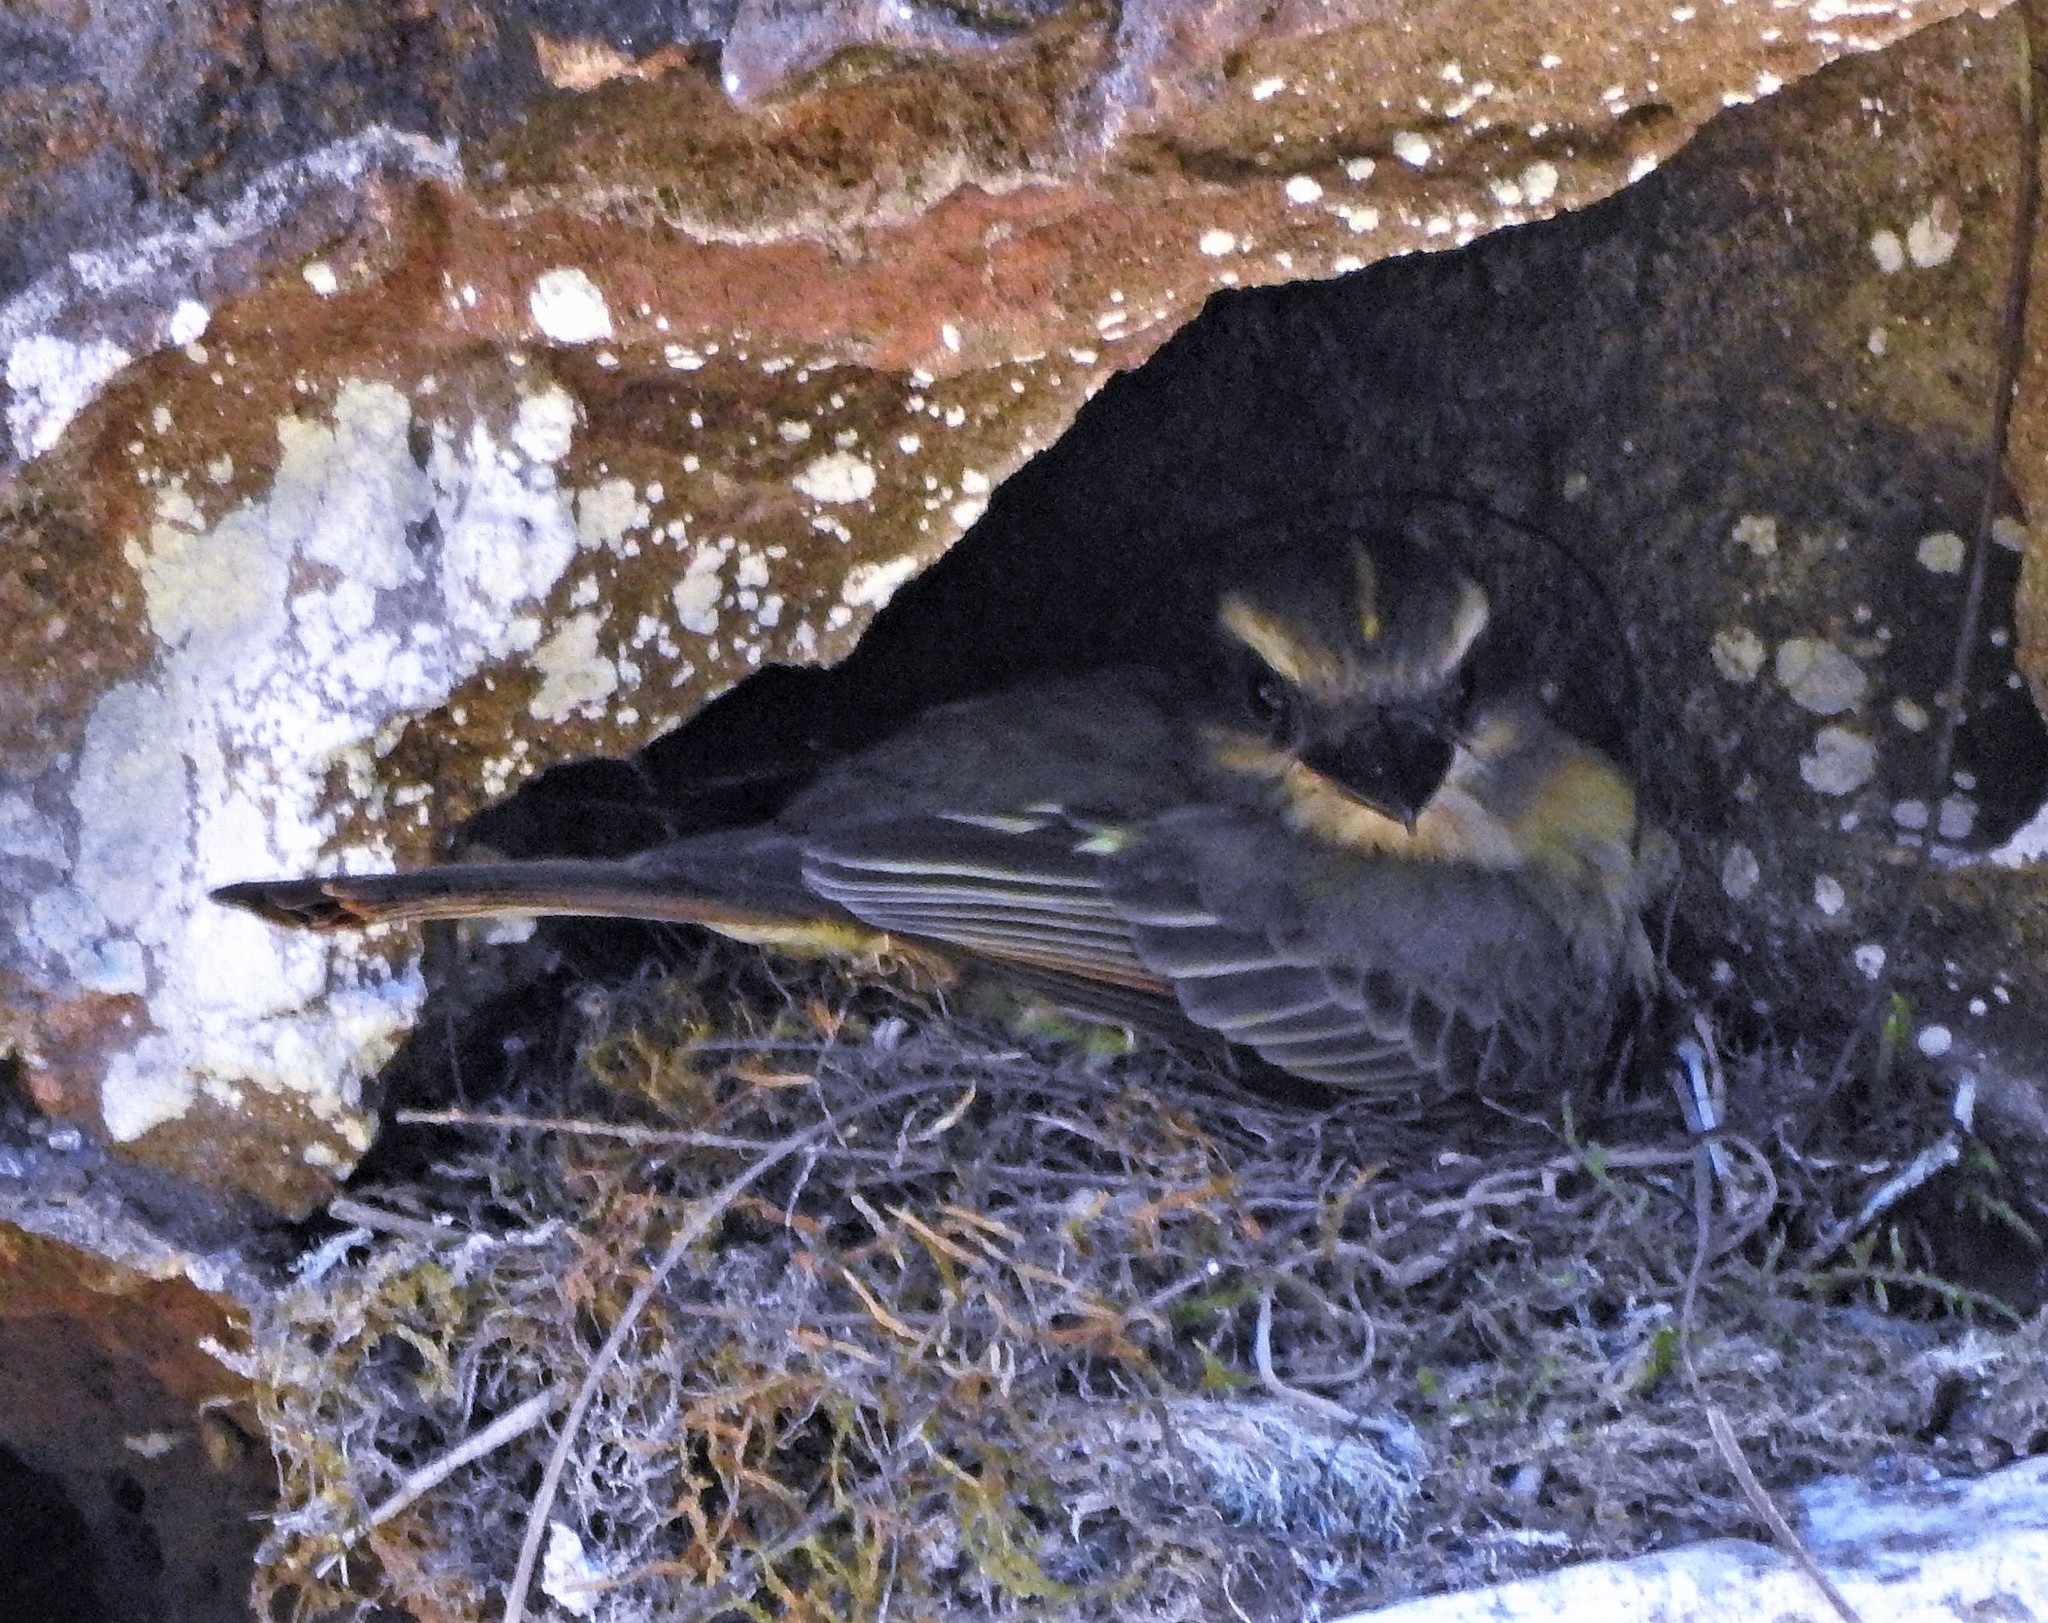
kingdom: Animalia
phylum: Chordata
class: Aves
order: Passeriformes
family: Tyrannidae
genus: Myiodynastes
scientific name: Myiodynastes chrysocephalus
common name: Golden-crowned flycatcher
